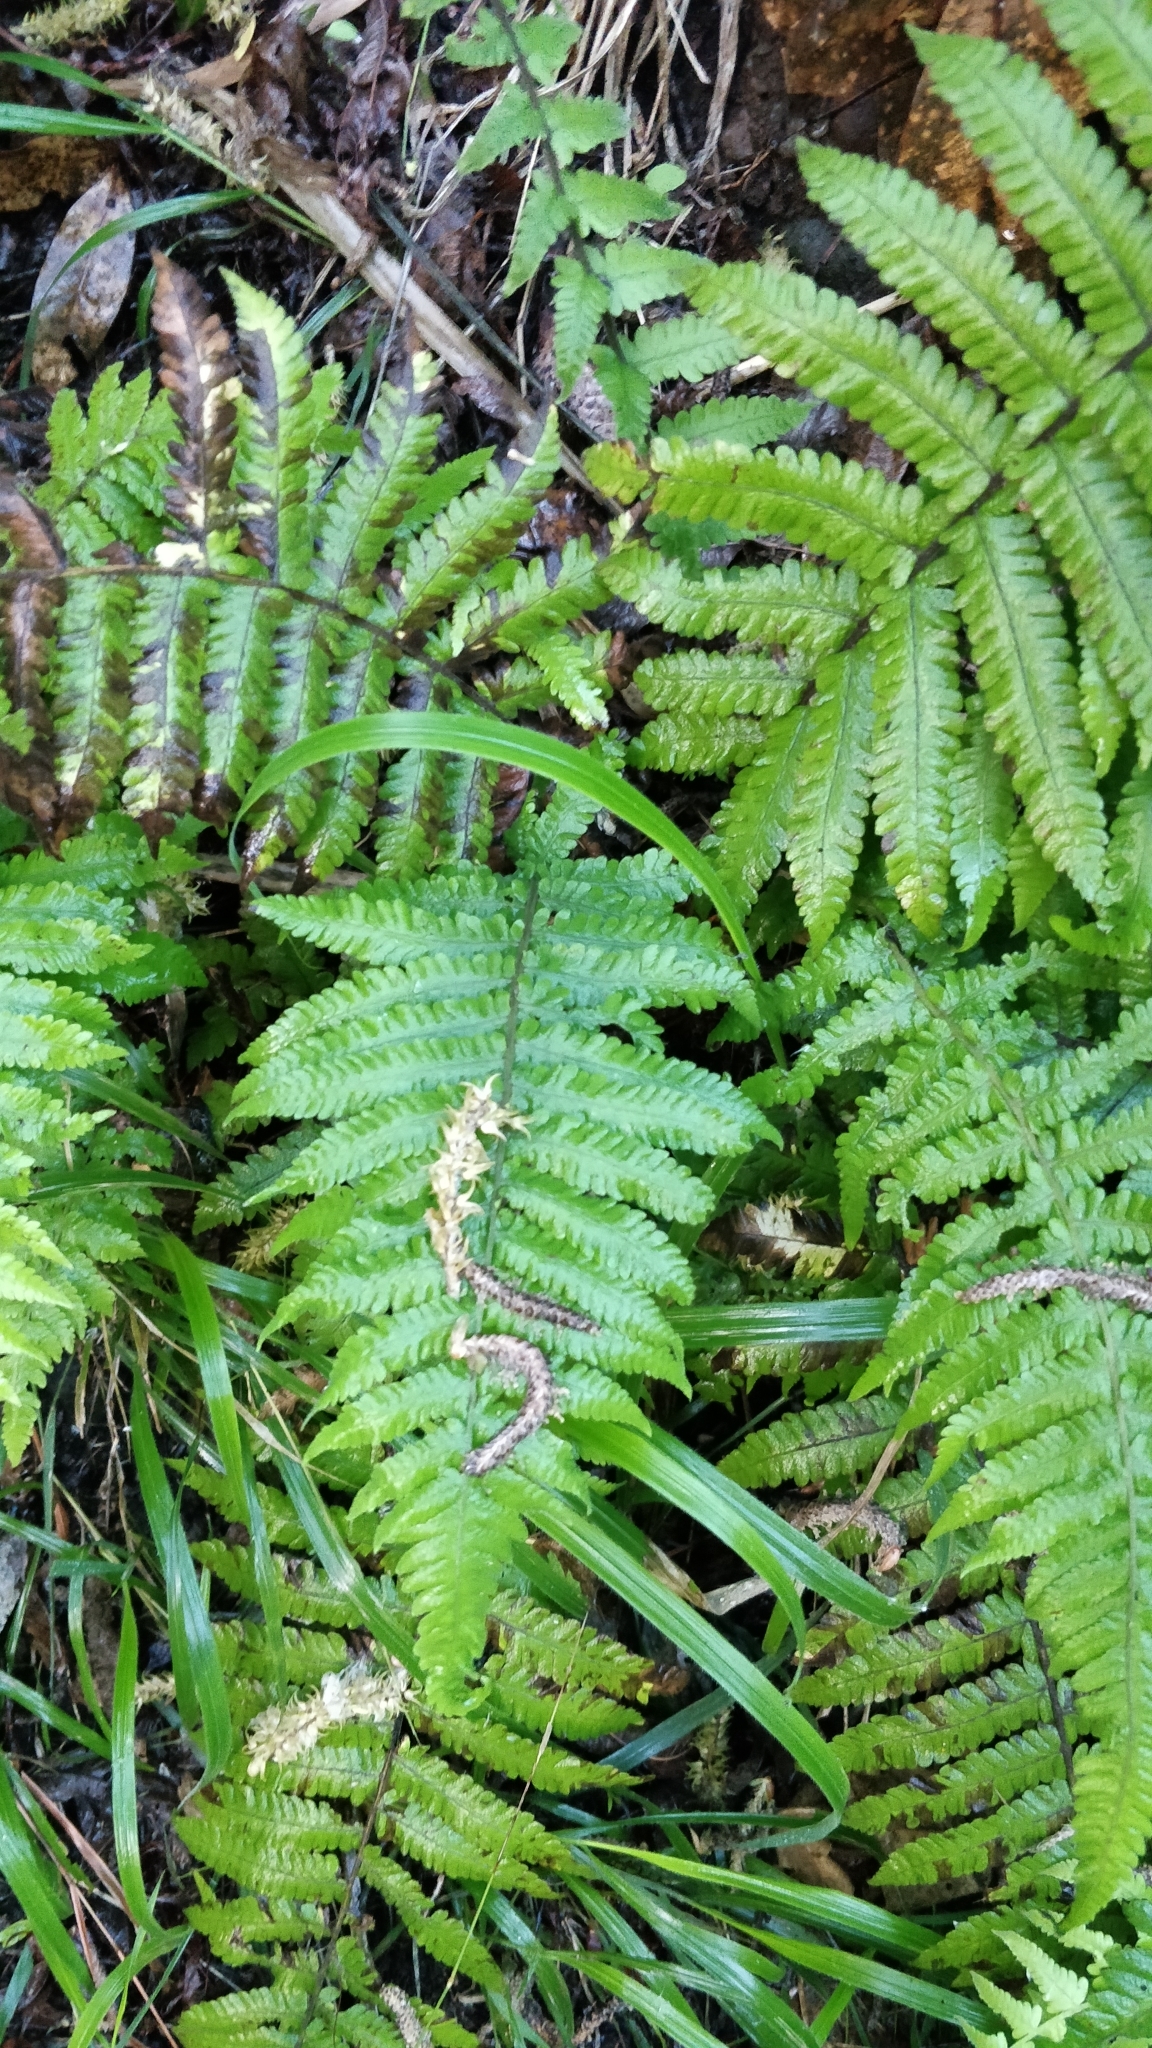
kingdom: Plantae
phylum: Tracheophyta
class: Polypodiopsida
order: Polypodiales
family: Thelypteridaceae
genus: Christella
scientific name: Christella dentata
